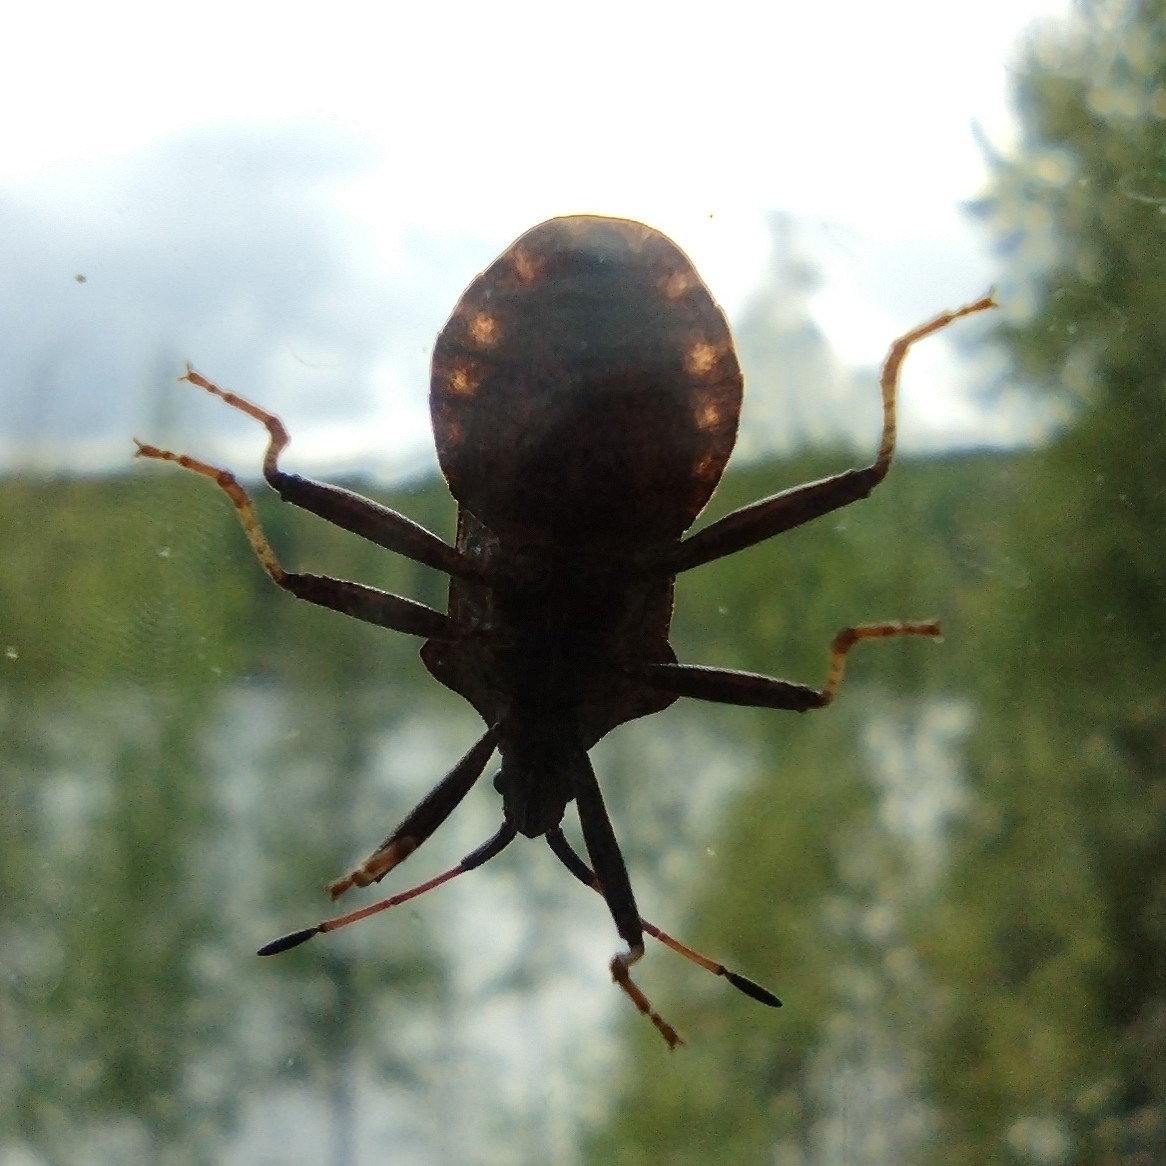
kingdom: Animalia
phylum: Arthropoda
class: Insecta
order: Hemiptera
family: Coreidae
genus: Coreus
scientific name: Coreus marginatus
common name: Dock bug
